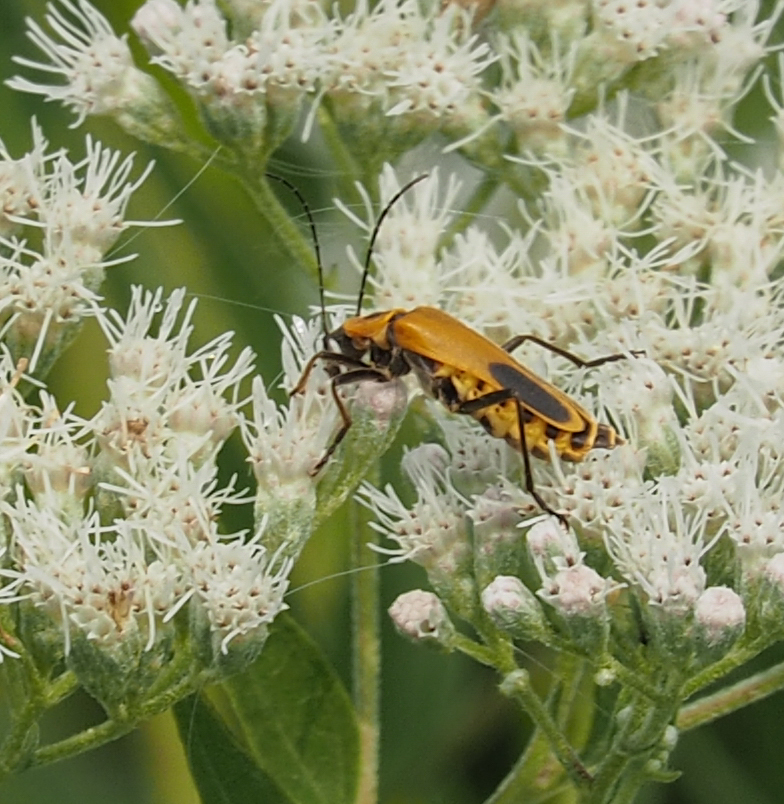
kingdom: Animalia
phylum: Arthropoda
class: Insecta
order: Coleoptera
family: Cantharidae
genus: Chauliognathus
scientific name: Chauliognathus pensylvanicus
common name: Goldenrod soldier beetle
